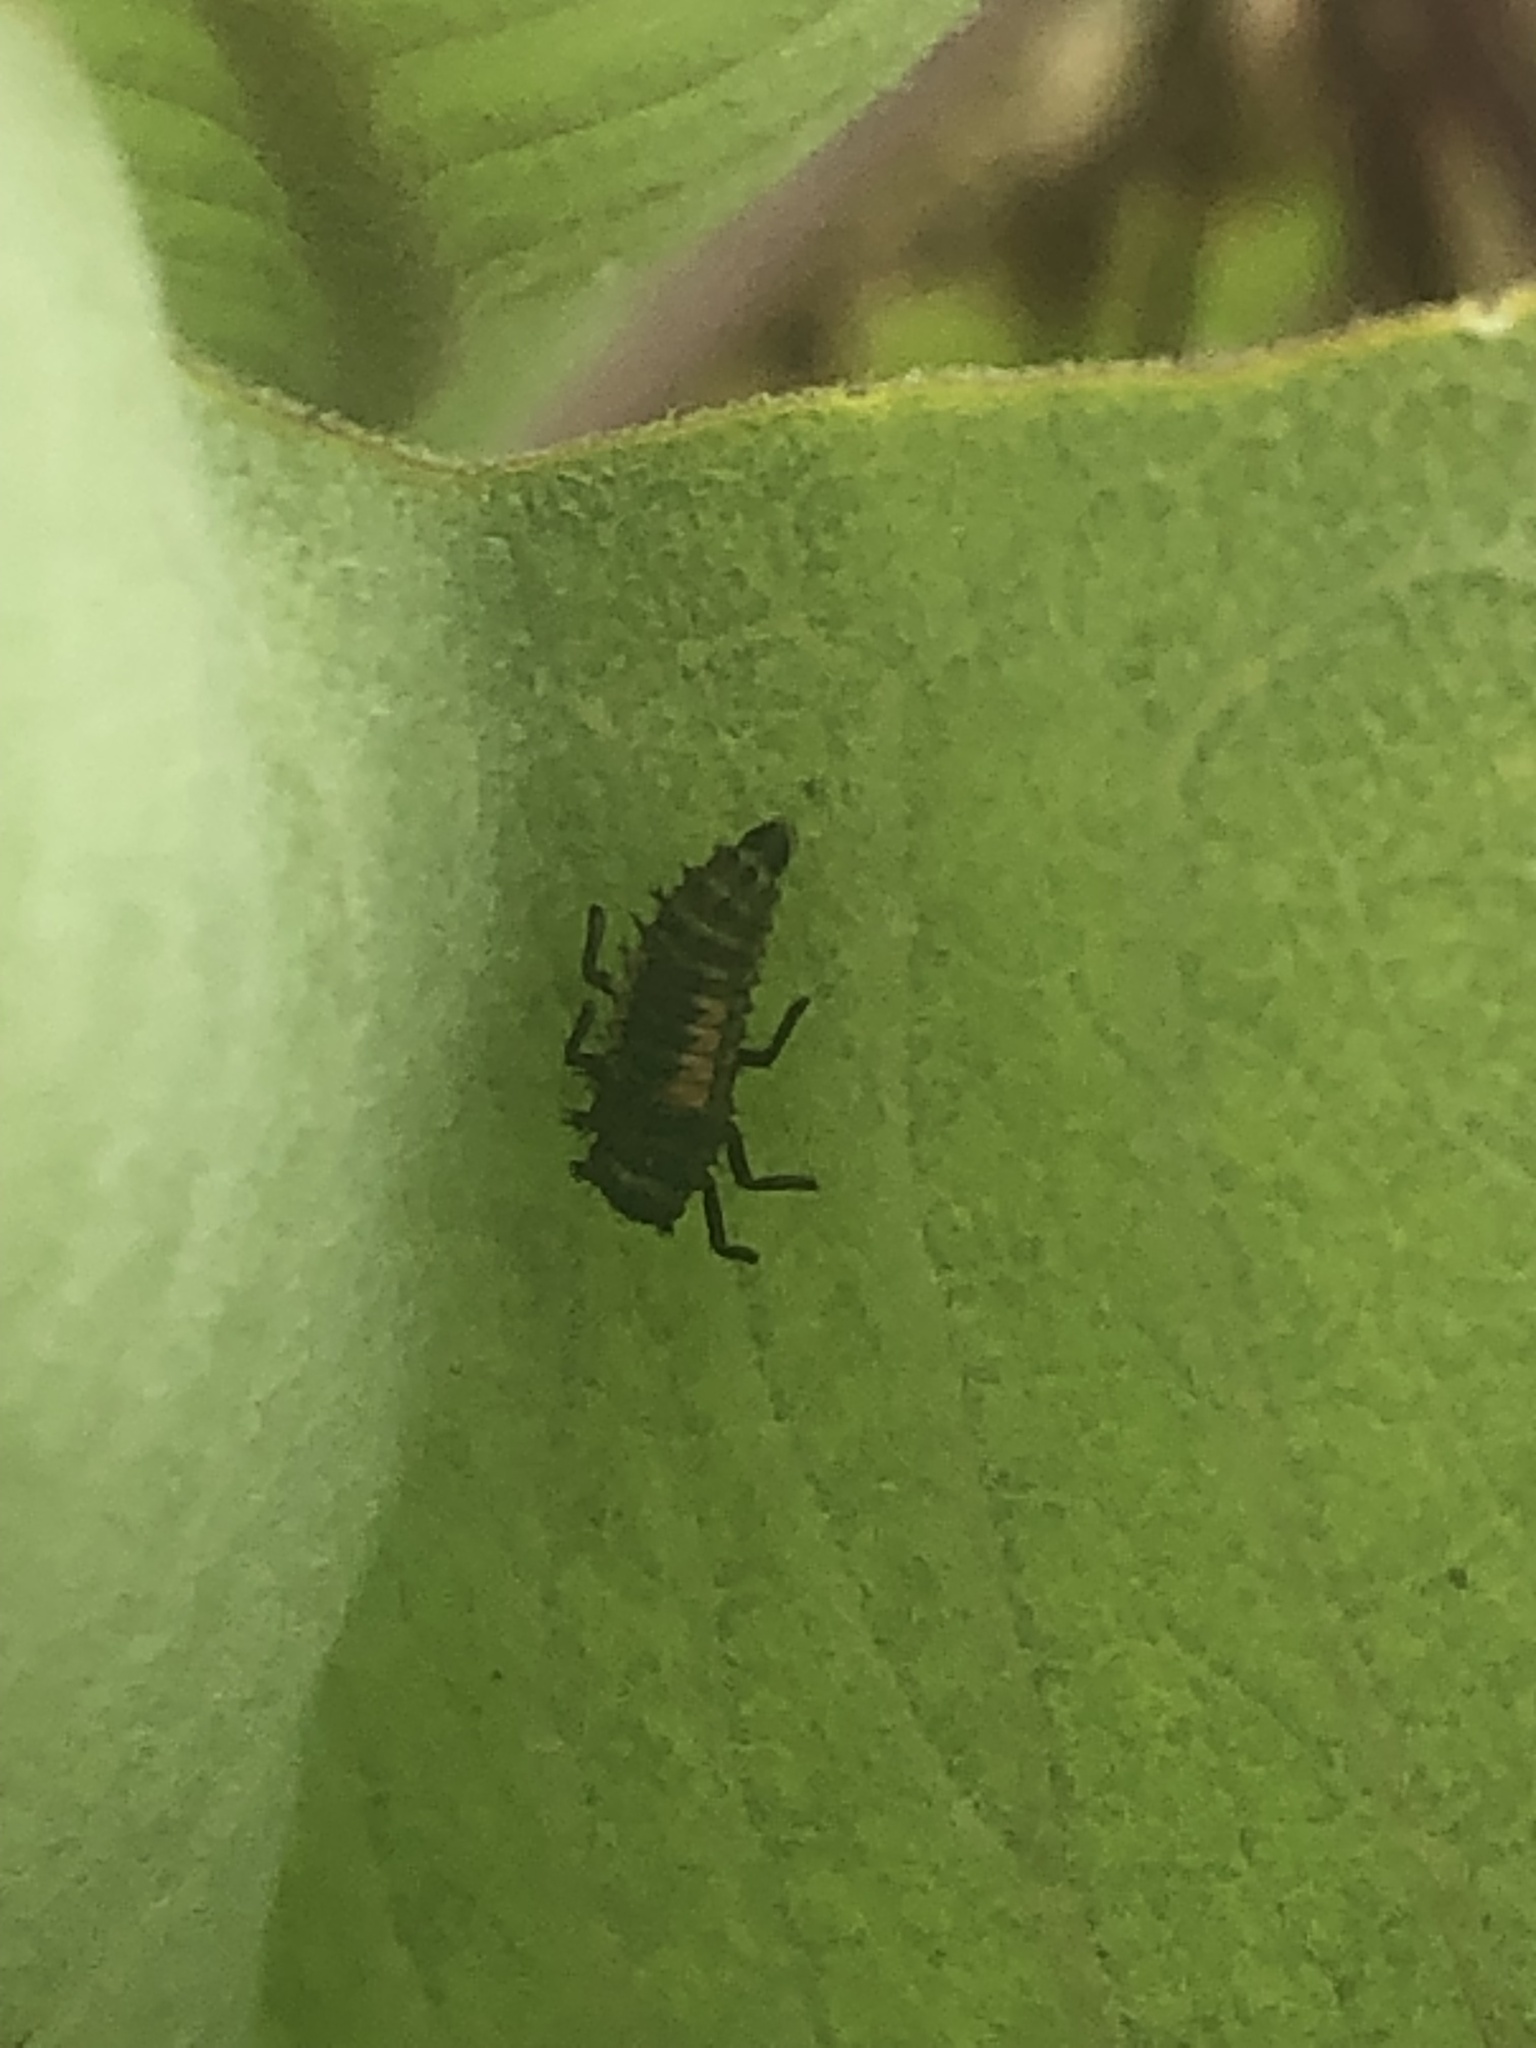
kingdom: Animalia
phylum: Arthropoda
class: Insecta
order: Coleoptera
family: Coccinellidae
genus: Harmonia
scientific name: Harmonia axyridis
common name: Harlequin ladybird
